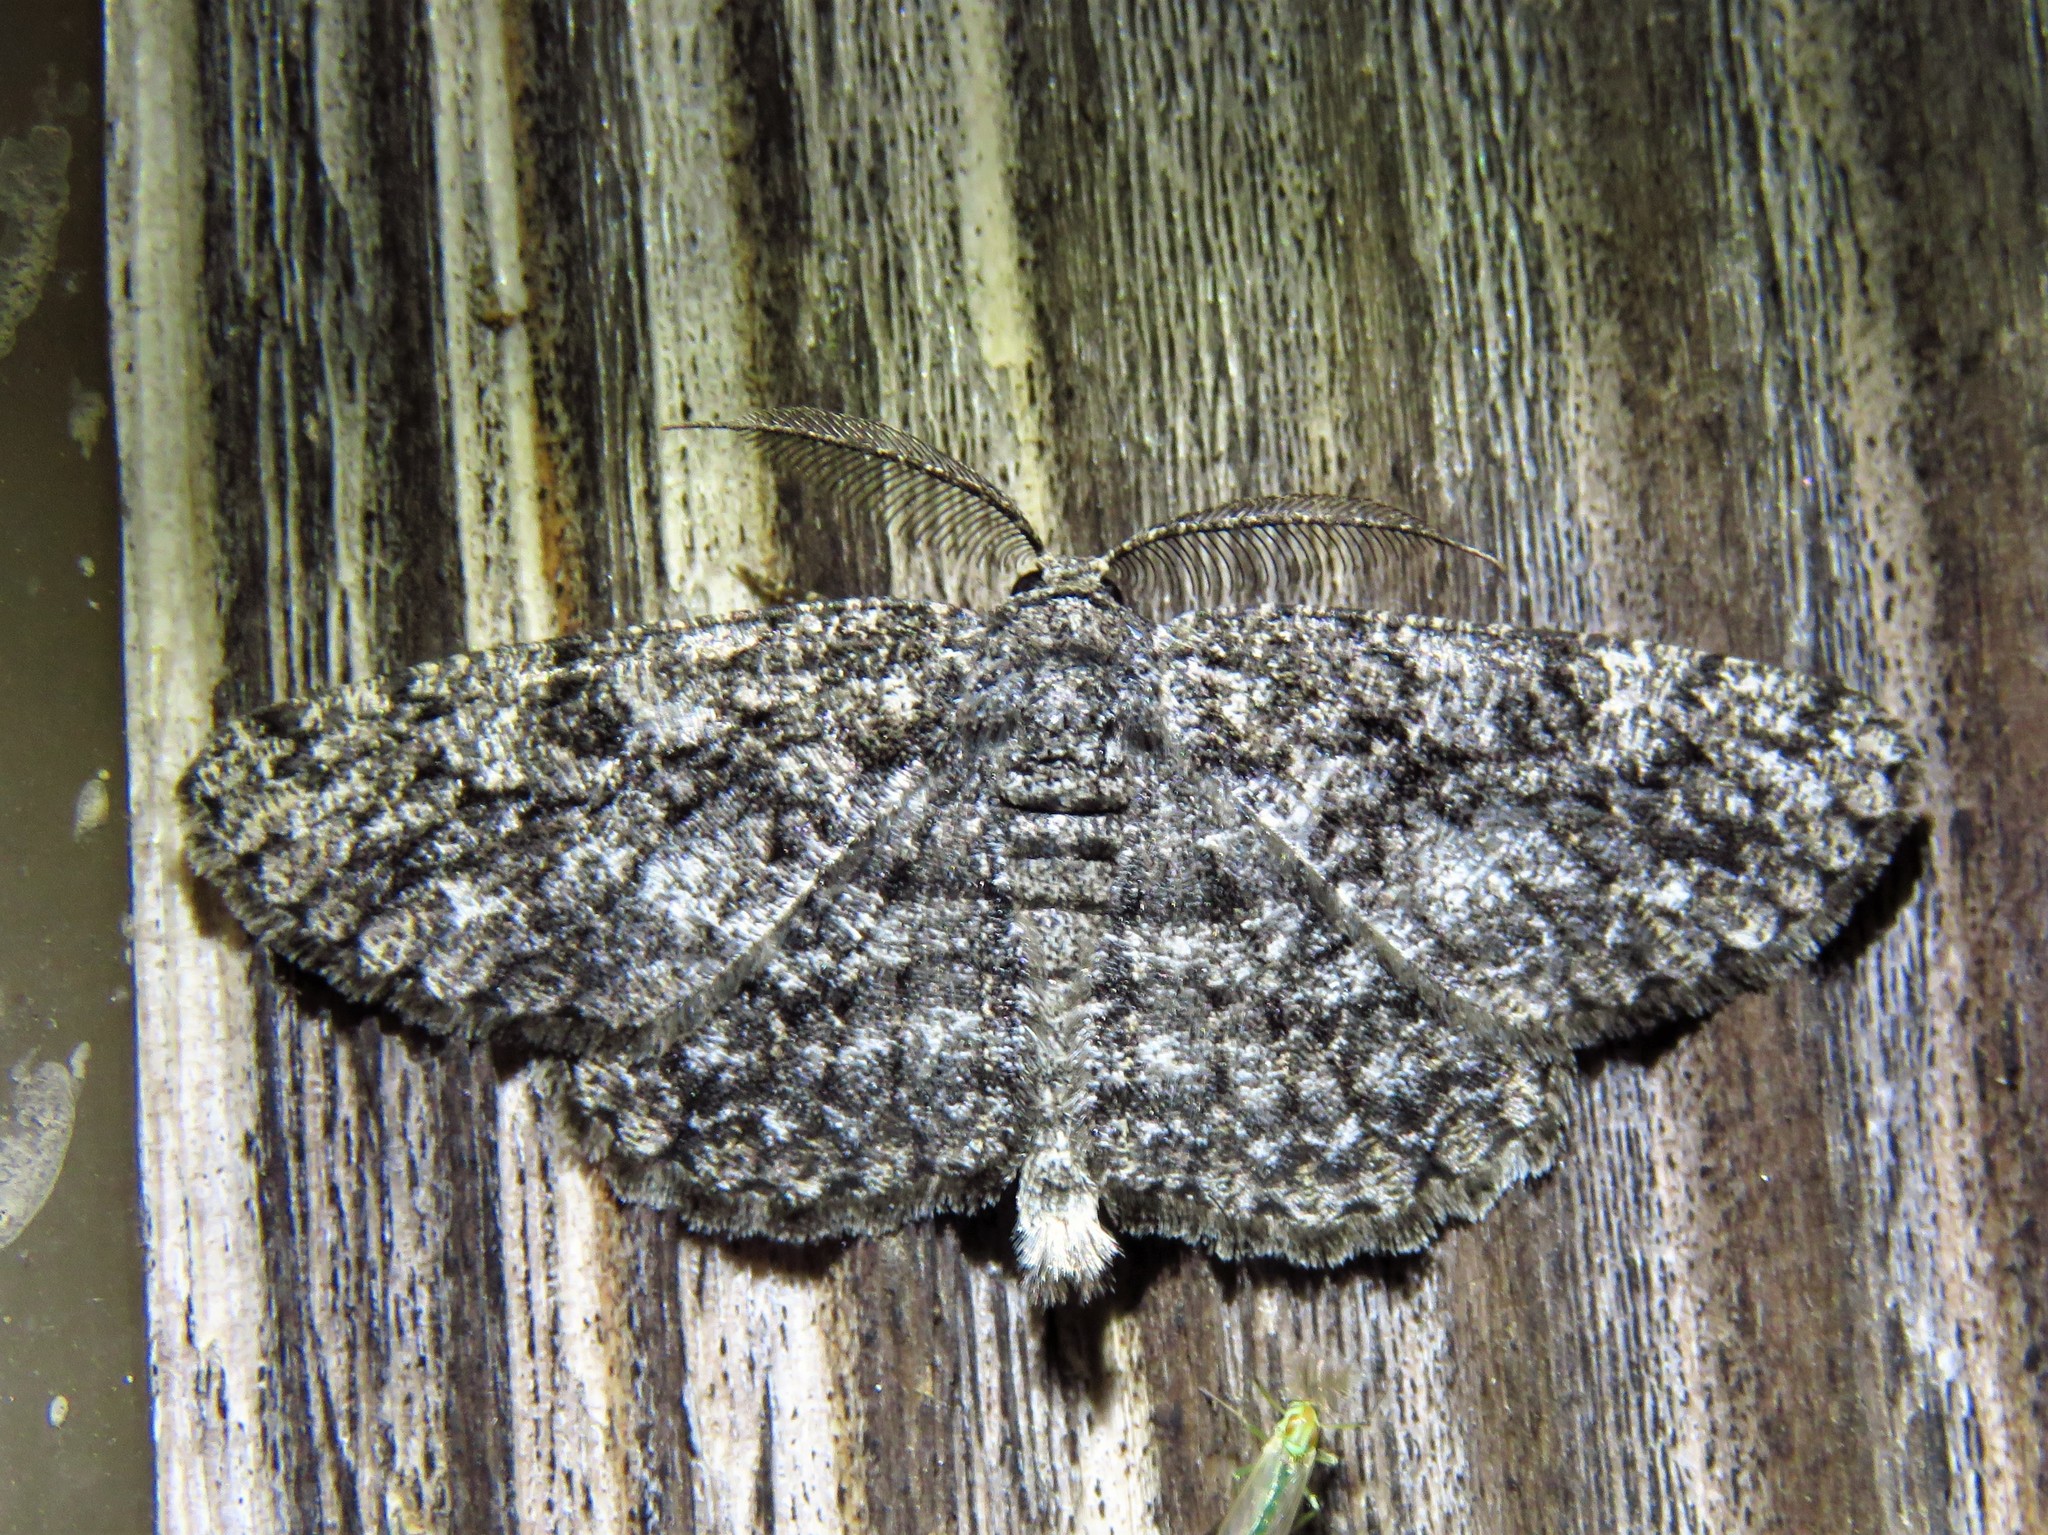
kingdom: Animalia
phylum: Arthropoda
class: Insecta
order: Lepidoptera
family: Geometridae
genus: Hypomecis
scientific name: Hypomecis umbrosaria
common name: Umber moth
